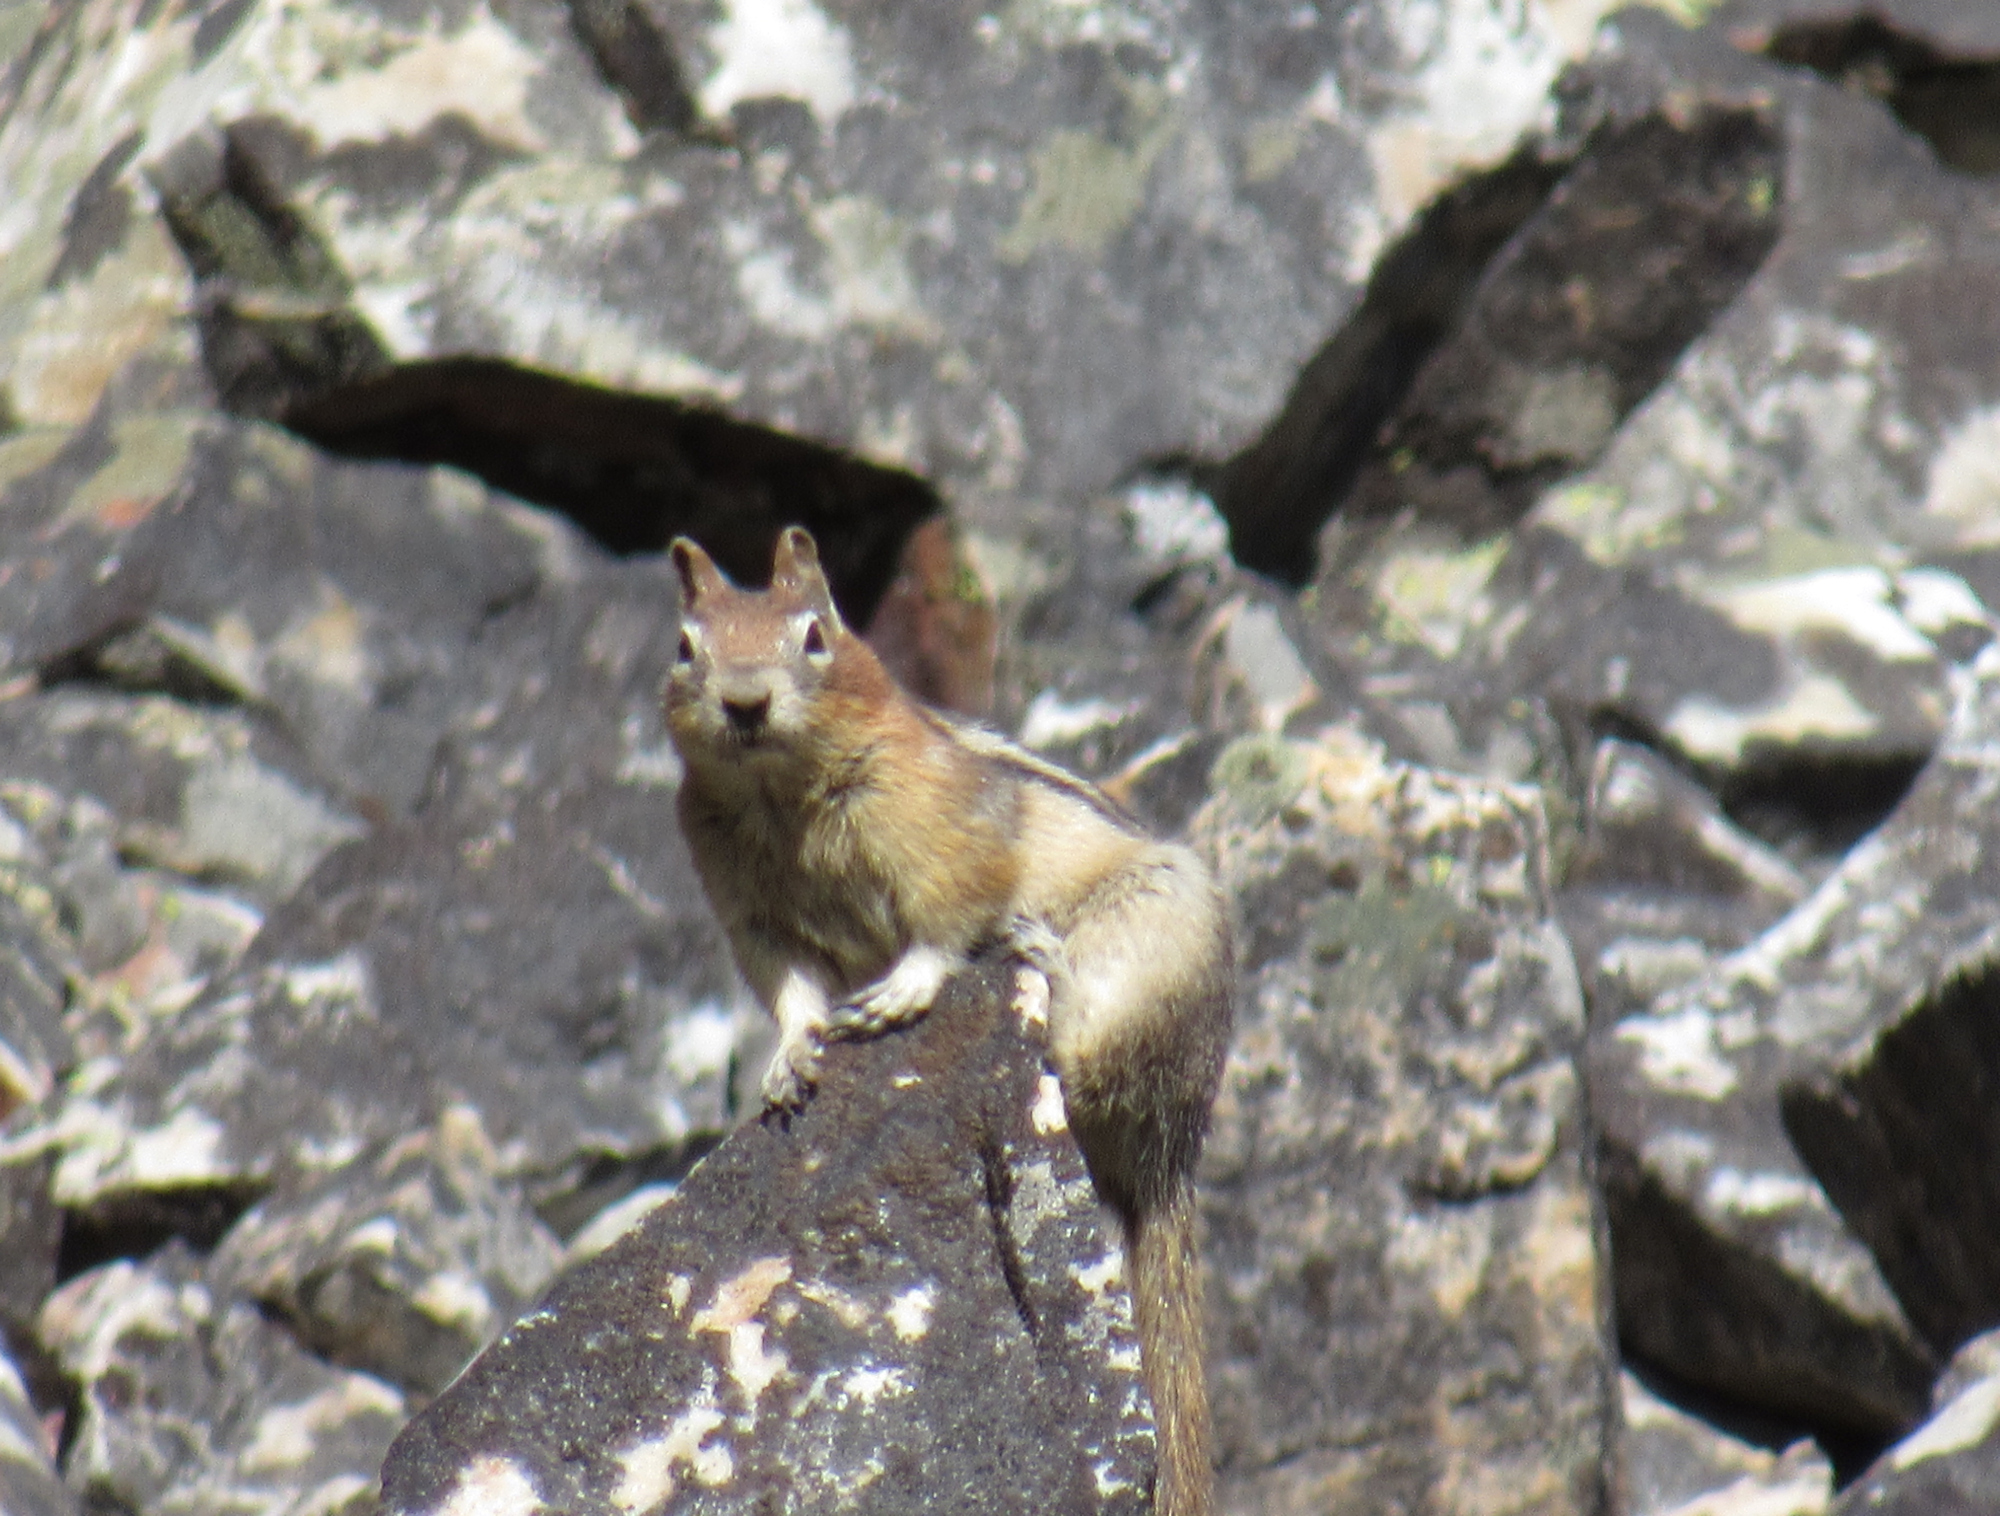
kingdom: Animalia
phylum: Chordata
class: Mammalia
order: Rodentia
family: Sciuridae
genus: Callospermophilus
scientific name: Callospermophilus lateralis
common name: Golden-mantled ground squirrel
